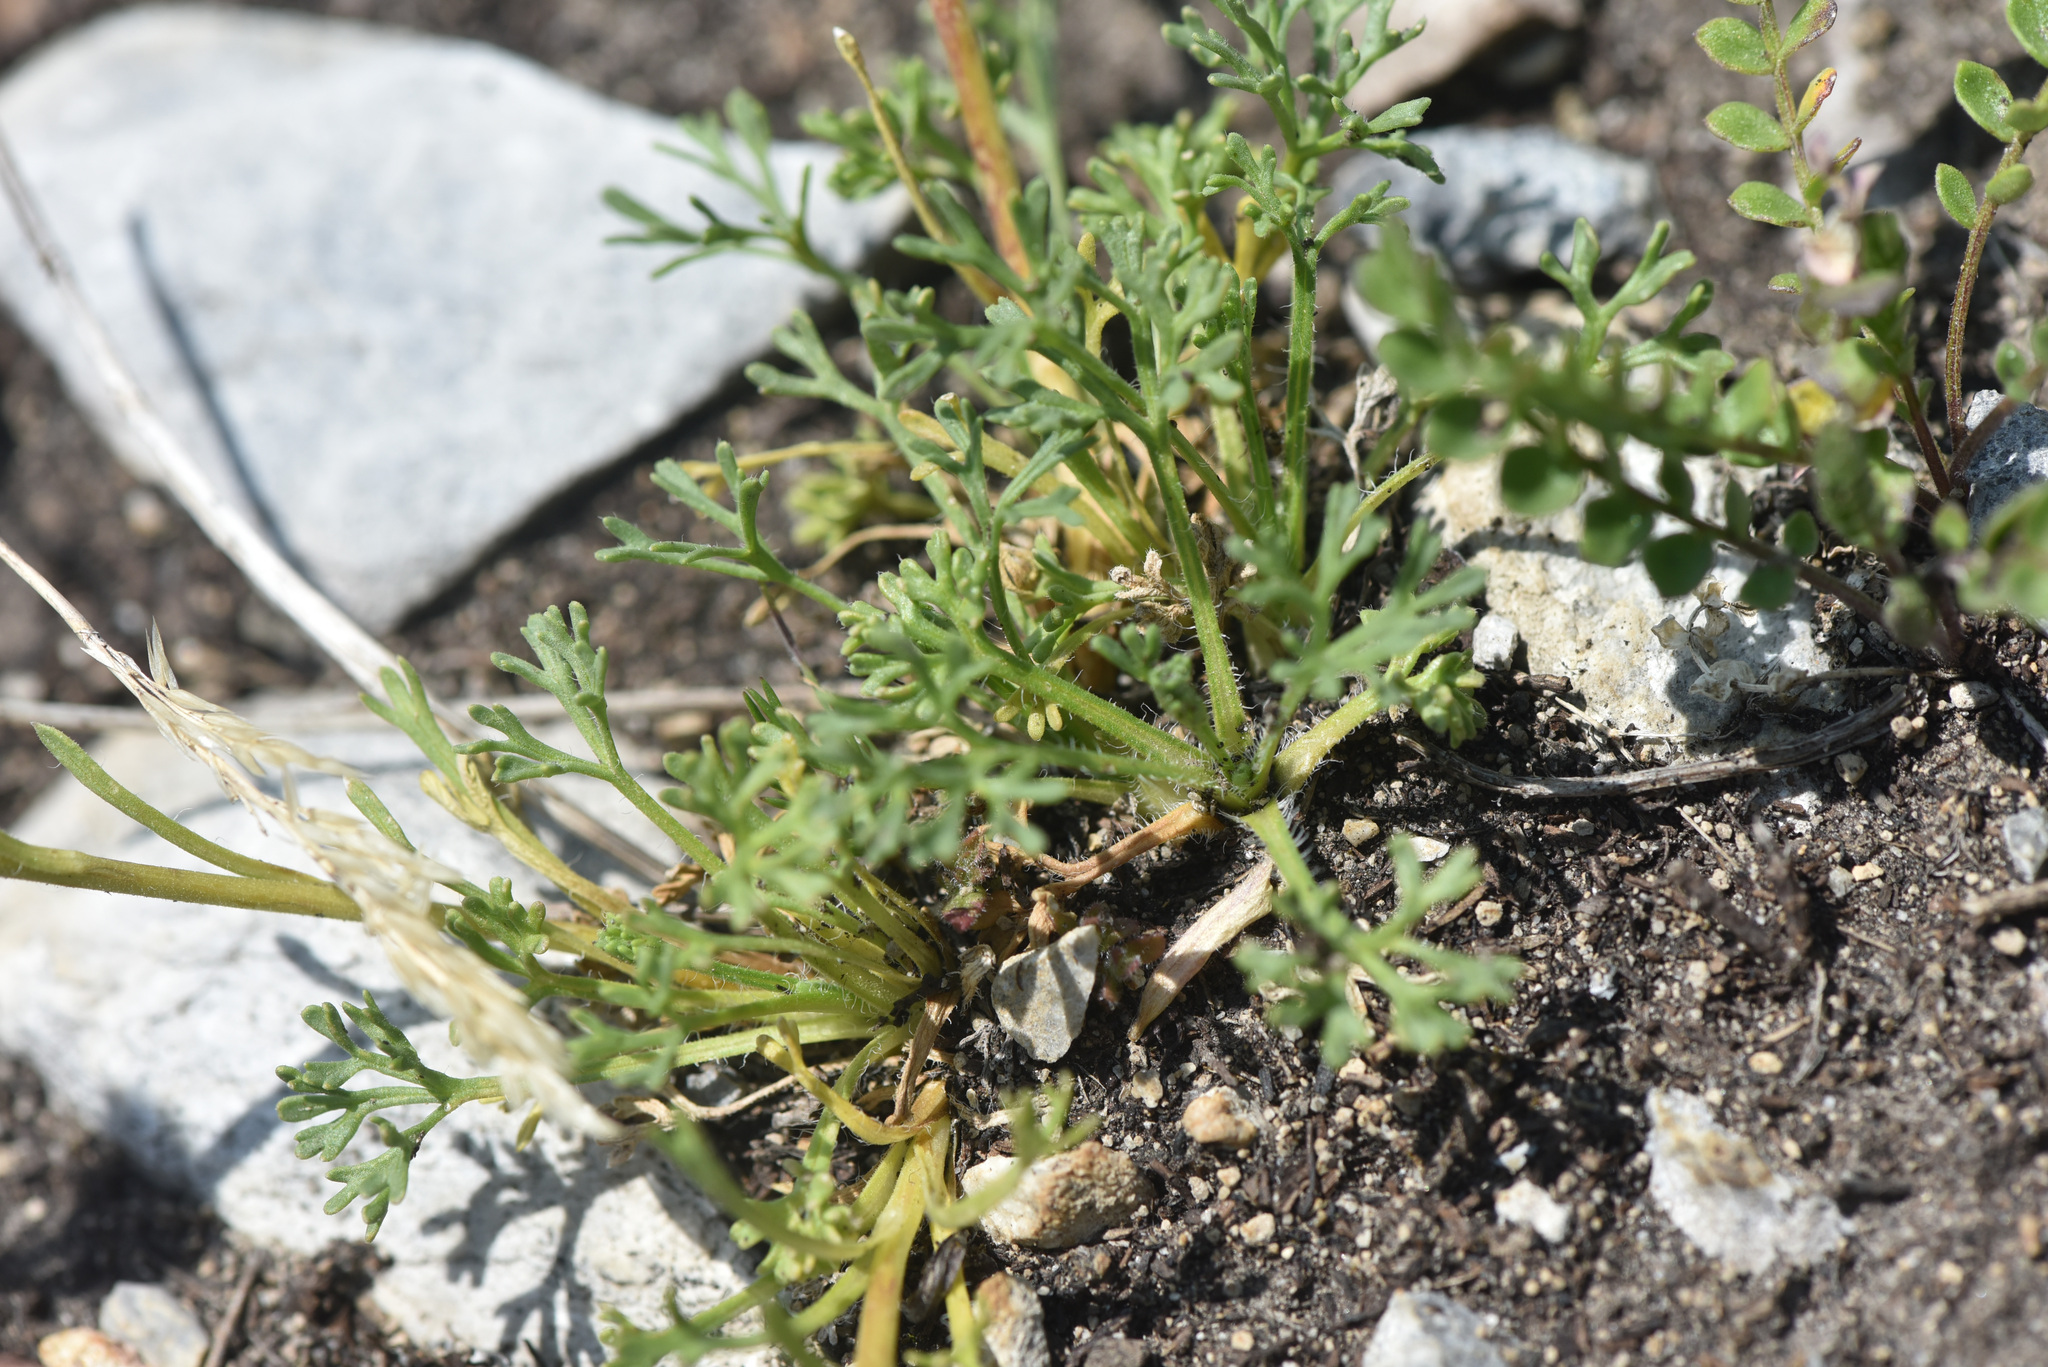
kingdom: Plantae
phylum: Tracheophyta
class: Magnoliopsida
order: Asterales
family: Asteraceae
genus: Erigeron
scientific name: Erigeron compositus
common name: Dwarf mountain fleabane
